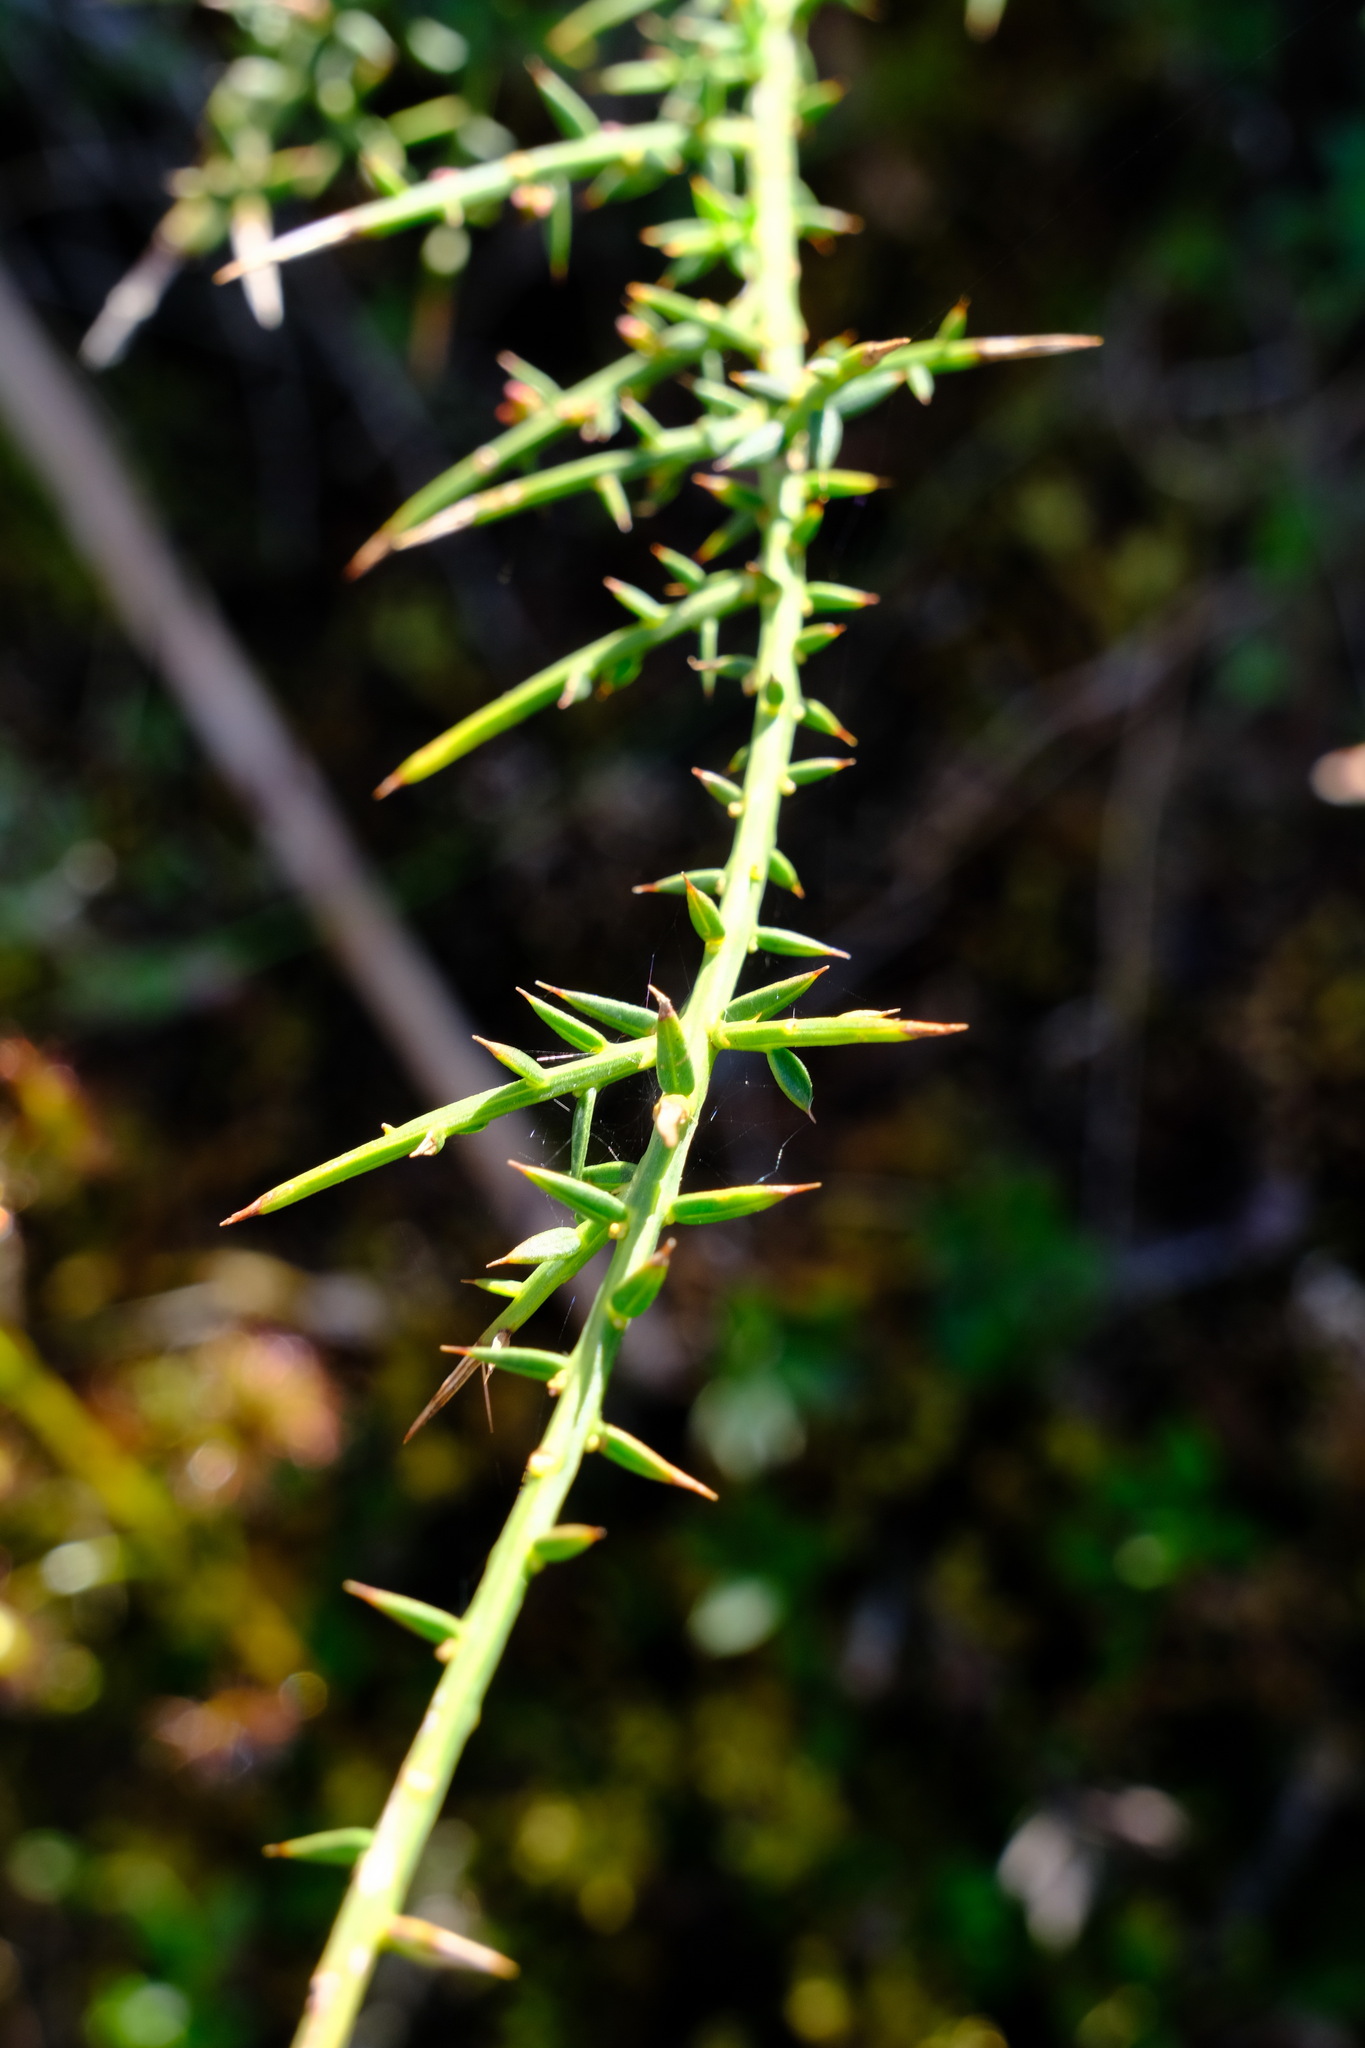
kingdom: Plantae
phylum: Tracheophyta
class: Magnoliopsida
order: Fabales
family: Fabaceae
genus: Daviesia
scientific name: Daviesia ulicifolia
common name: Gorse bitter-pea
